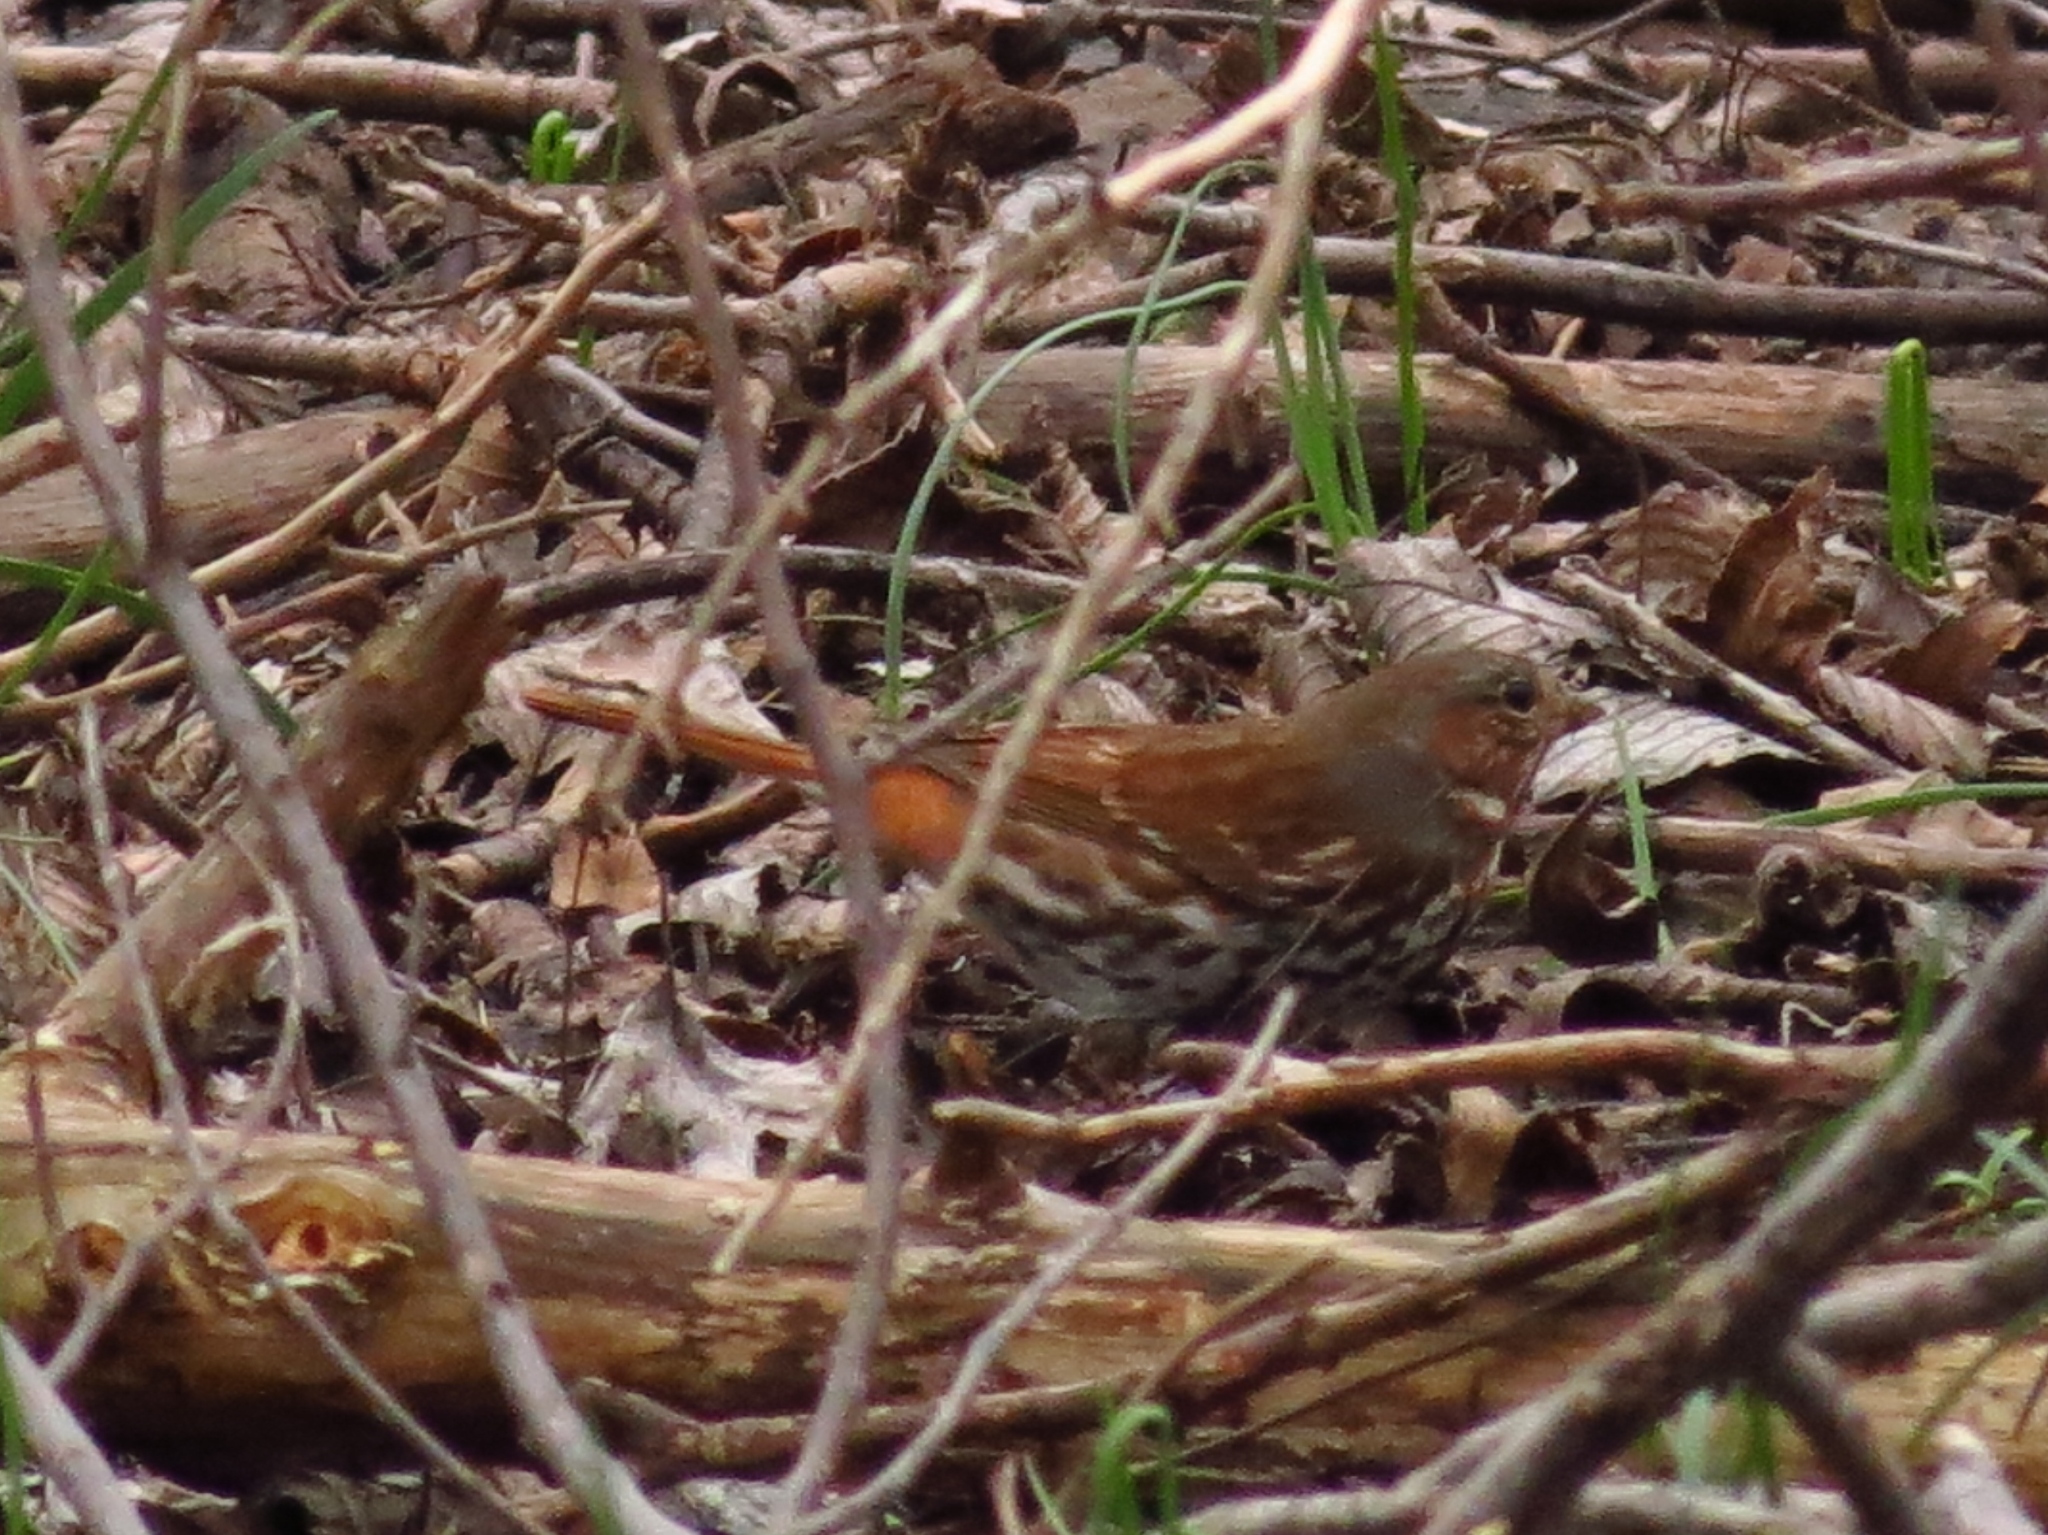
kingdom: Animalia
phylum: Chordata
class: Aves
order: Passeriformes
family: Passerellidae
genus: Passerella
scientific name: Passerella iliaca
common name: Fox sparrow
